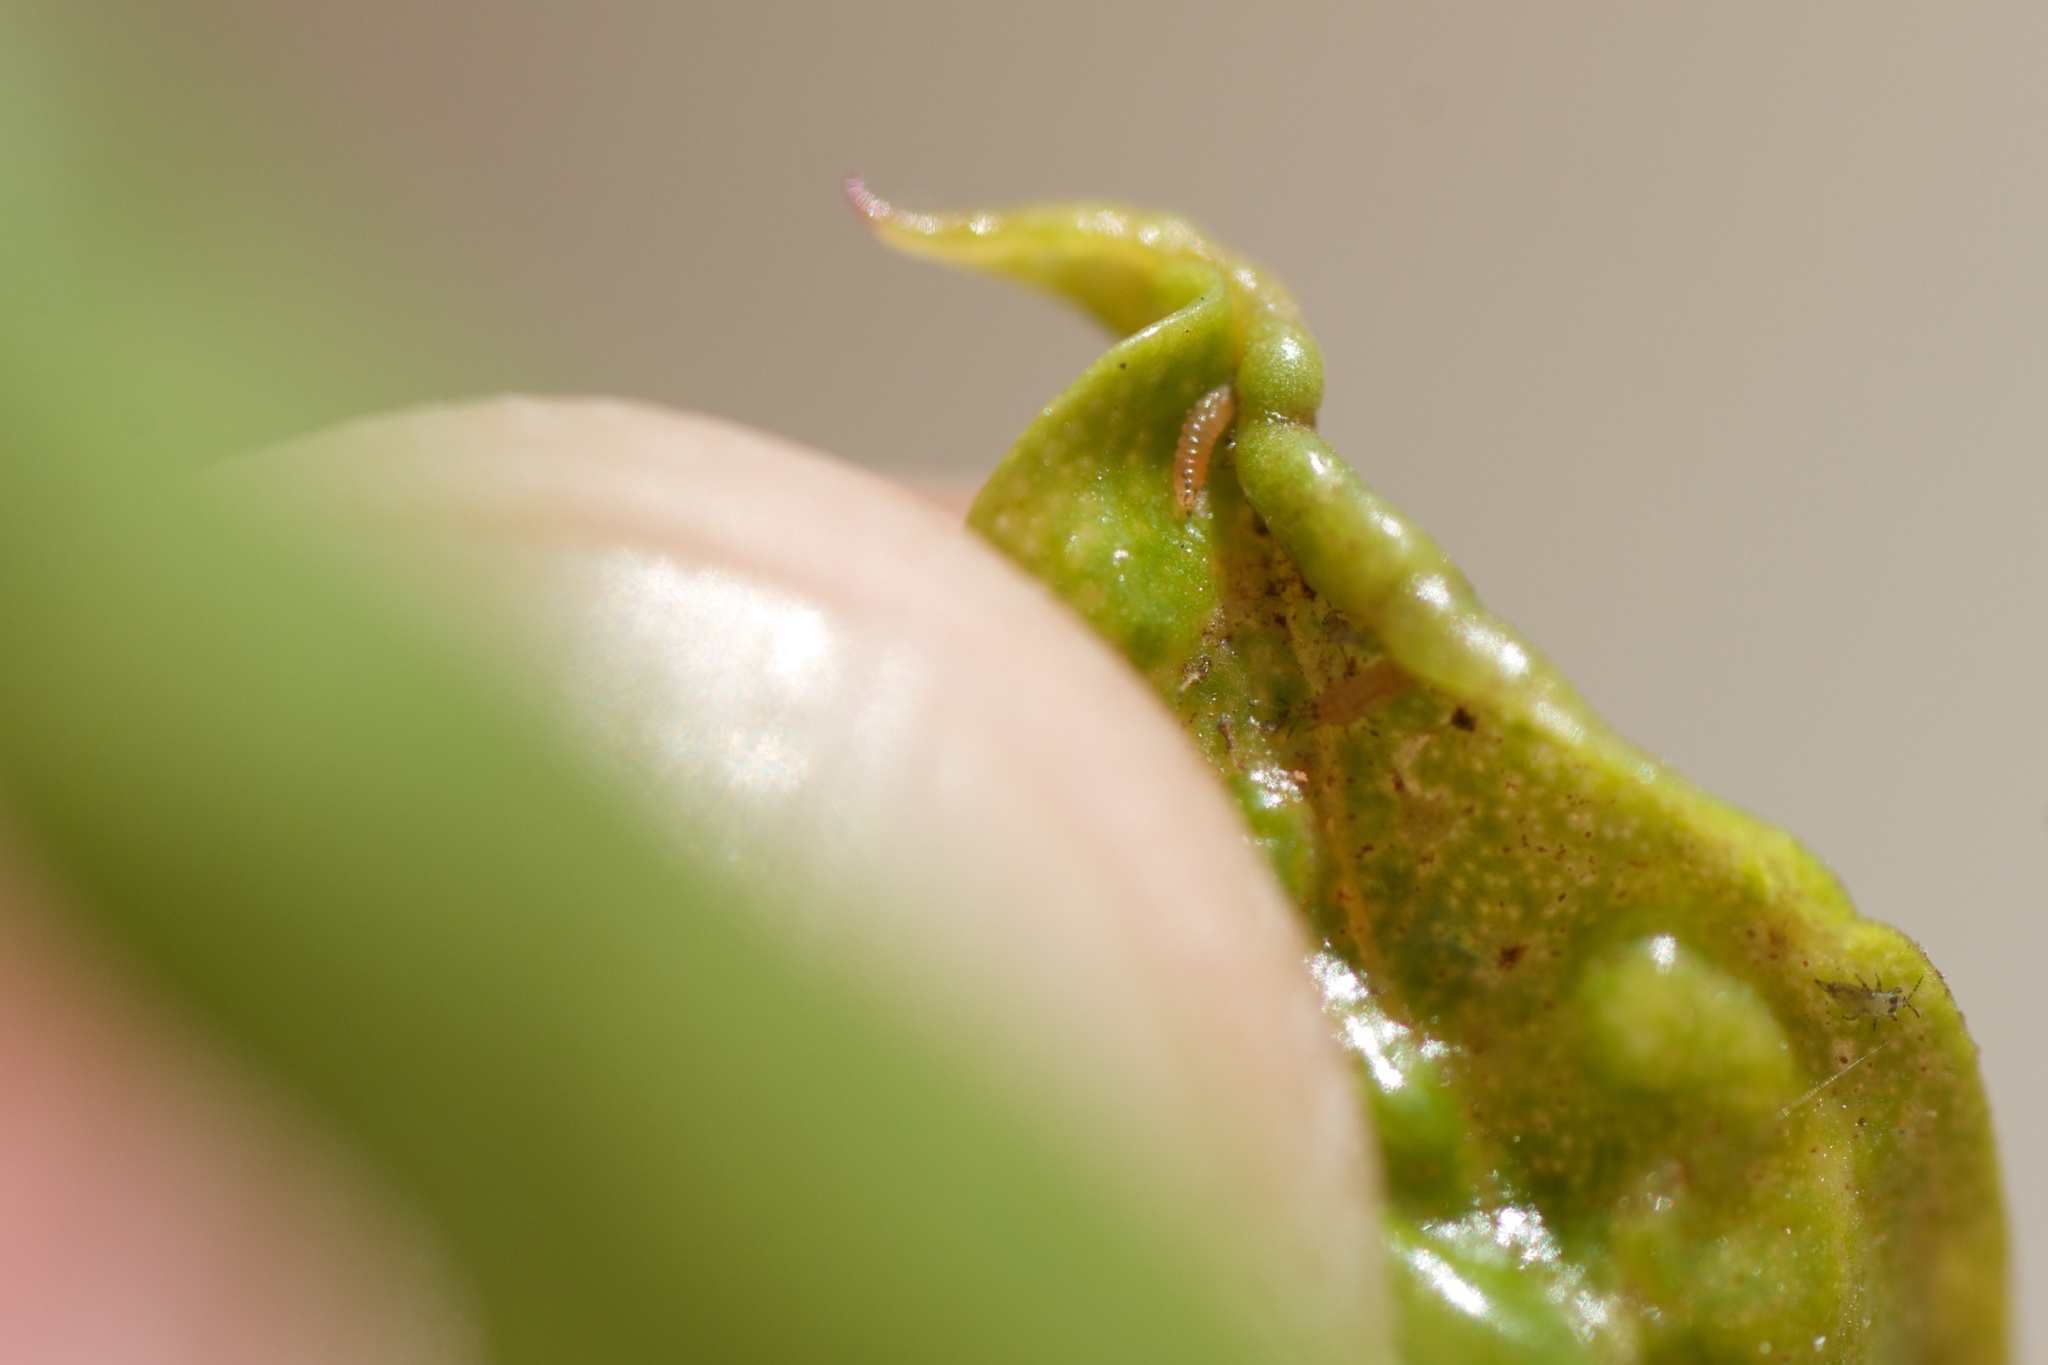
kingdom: Animalia
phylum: Arthropoda
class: Insecta
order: Thysanoptera
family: Phlaeothripidae
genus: Klambothrips
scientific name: Klambothrips myopori
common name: Myoporum thrips
